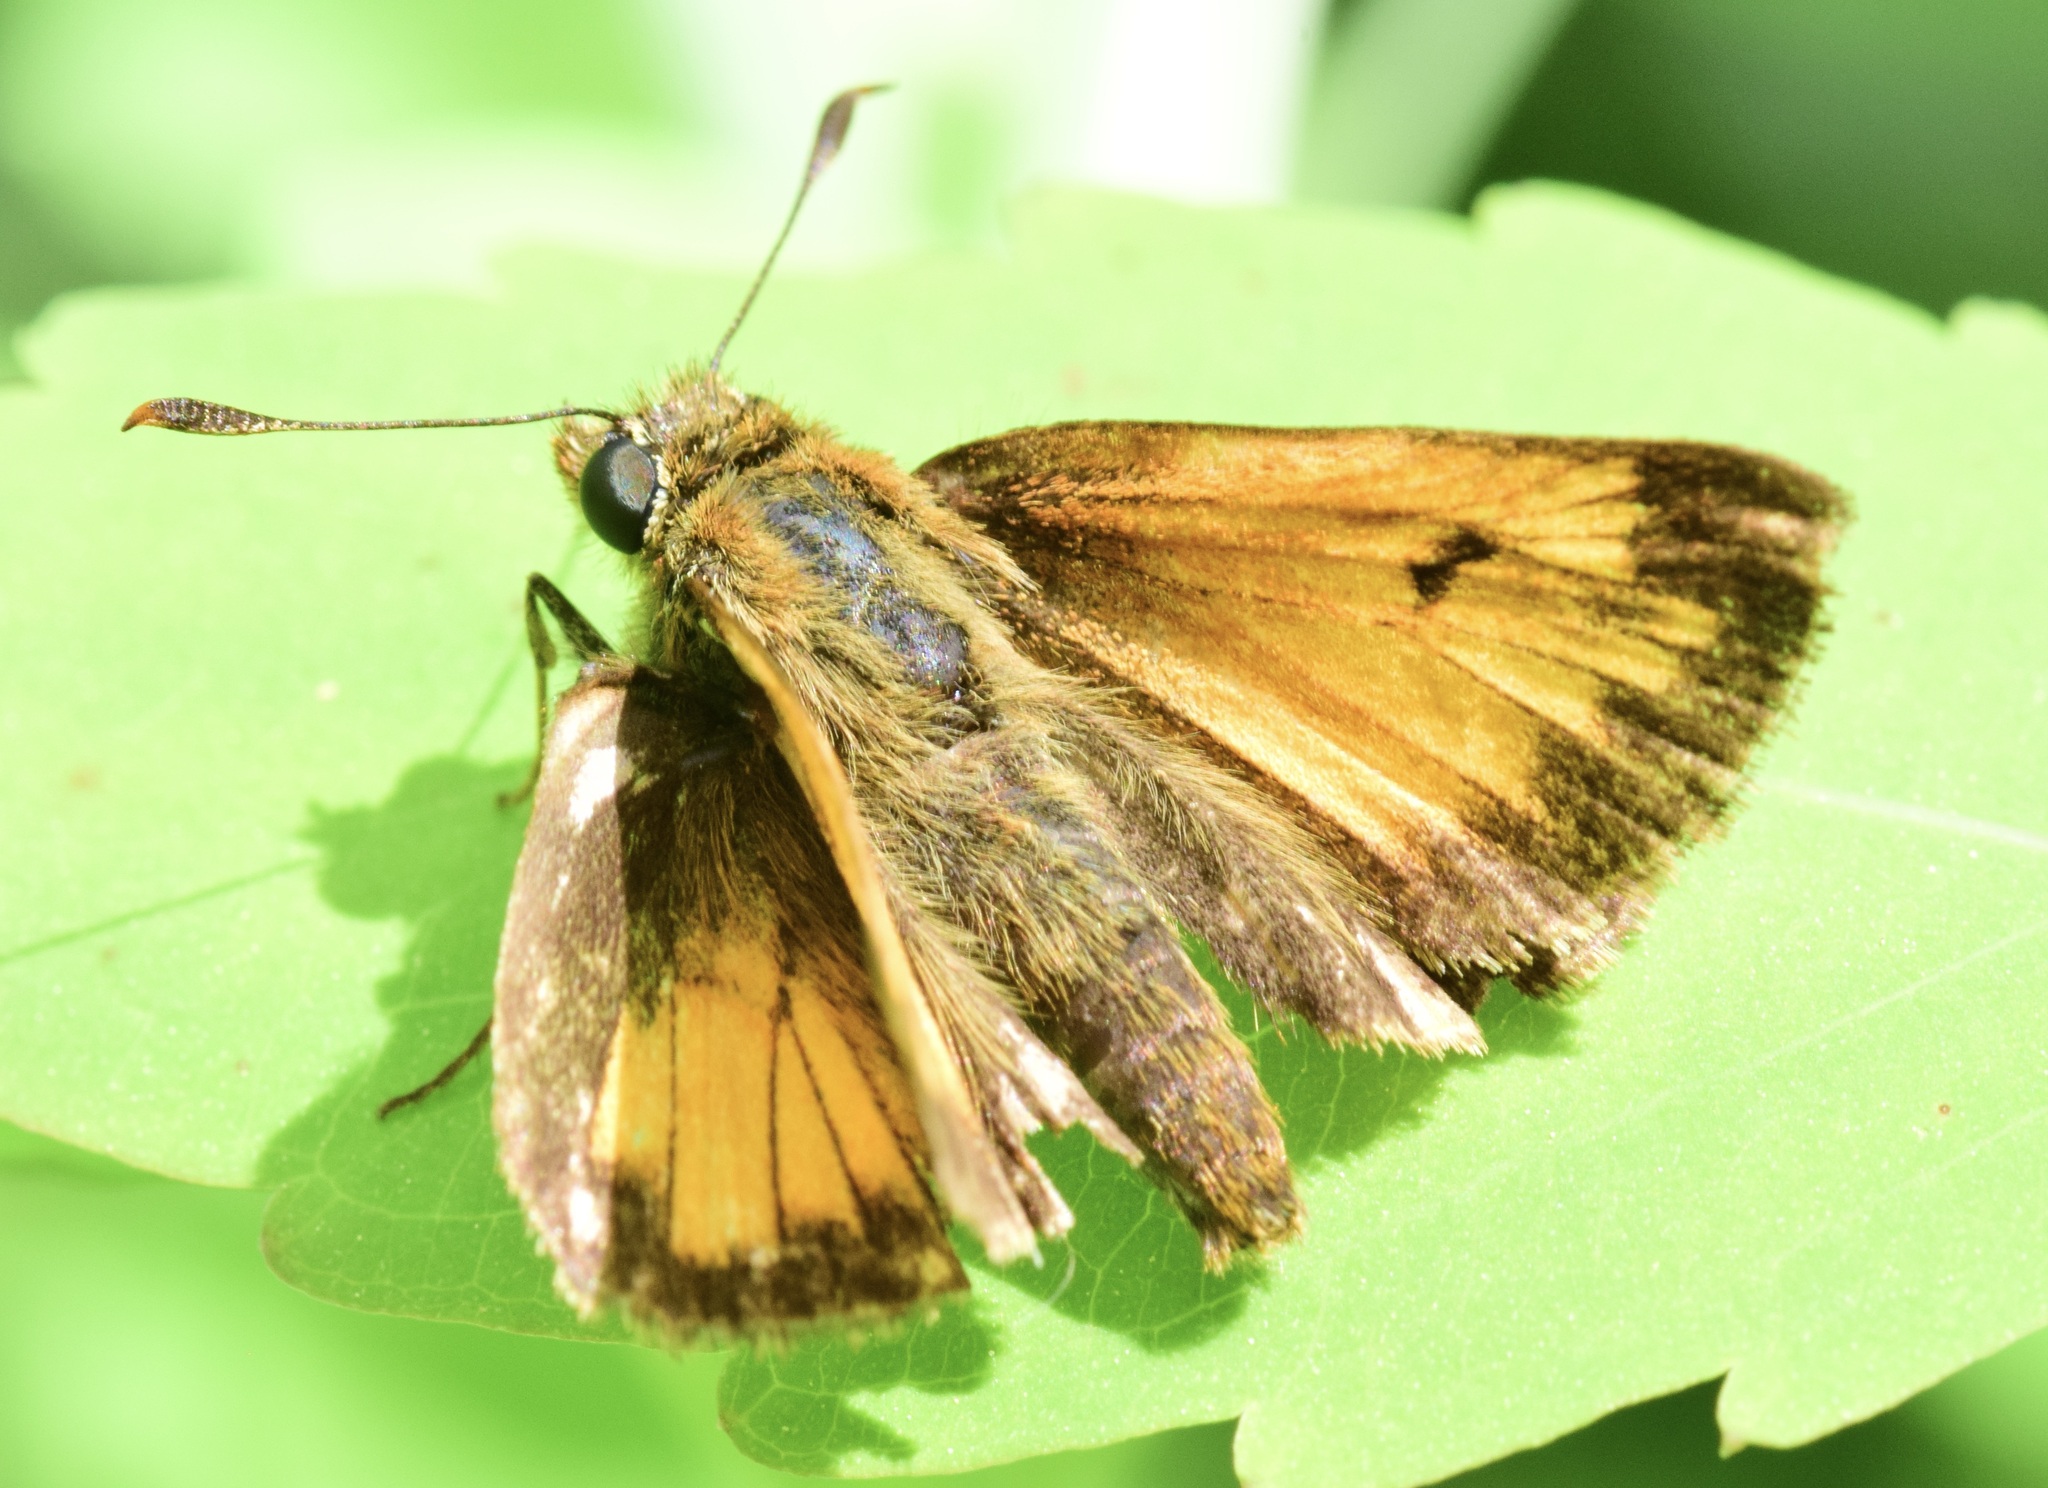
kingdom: Animalia
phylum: Arthropoda
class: Insecta
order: Lepidoptera
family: Hesperiidae
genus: Lon
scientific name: Lon hobomok
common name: Hobomok skipper
